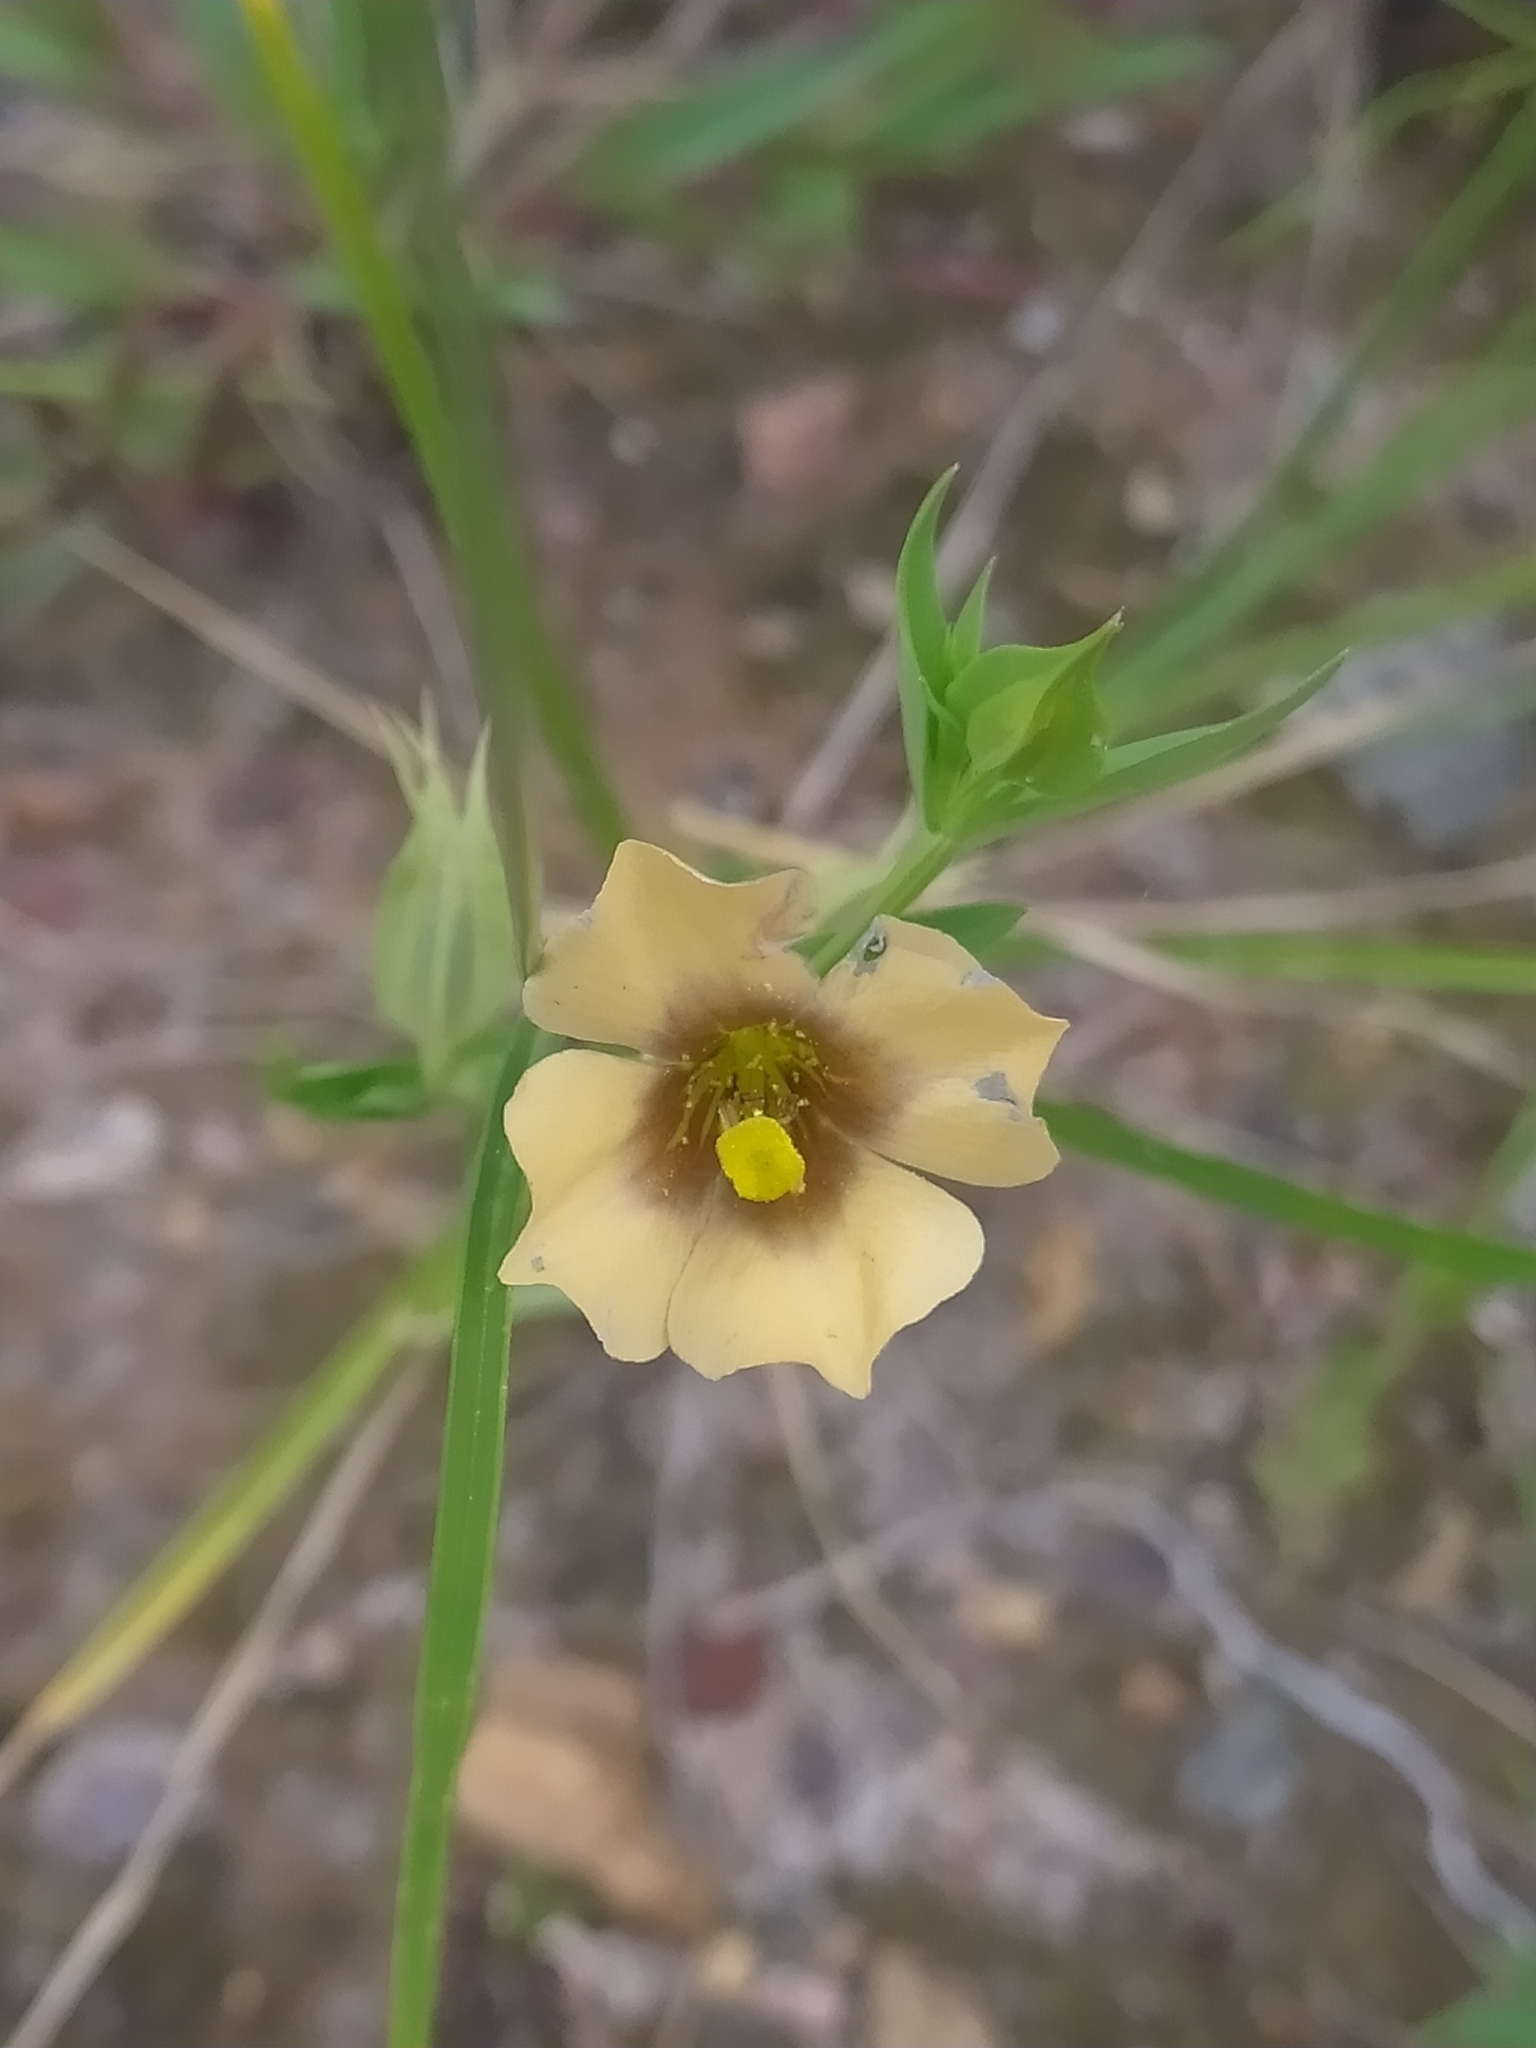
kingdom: Plantae
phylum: Tracheophyta
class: Magnoliopsida
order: Gentianales
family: Gentianaceae
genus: Schultesia
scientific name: Schultesia guianensis
